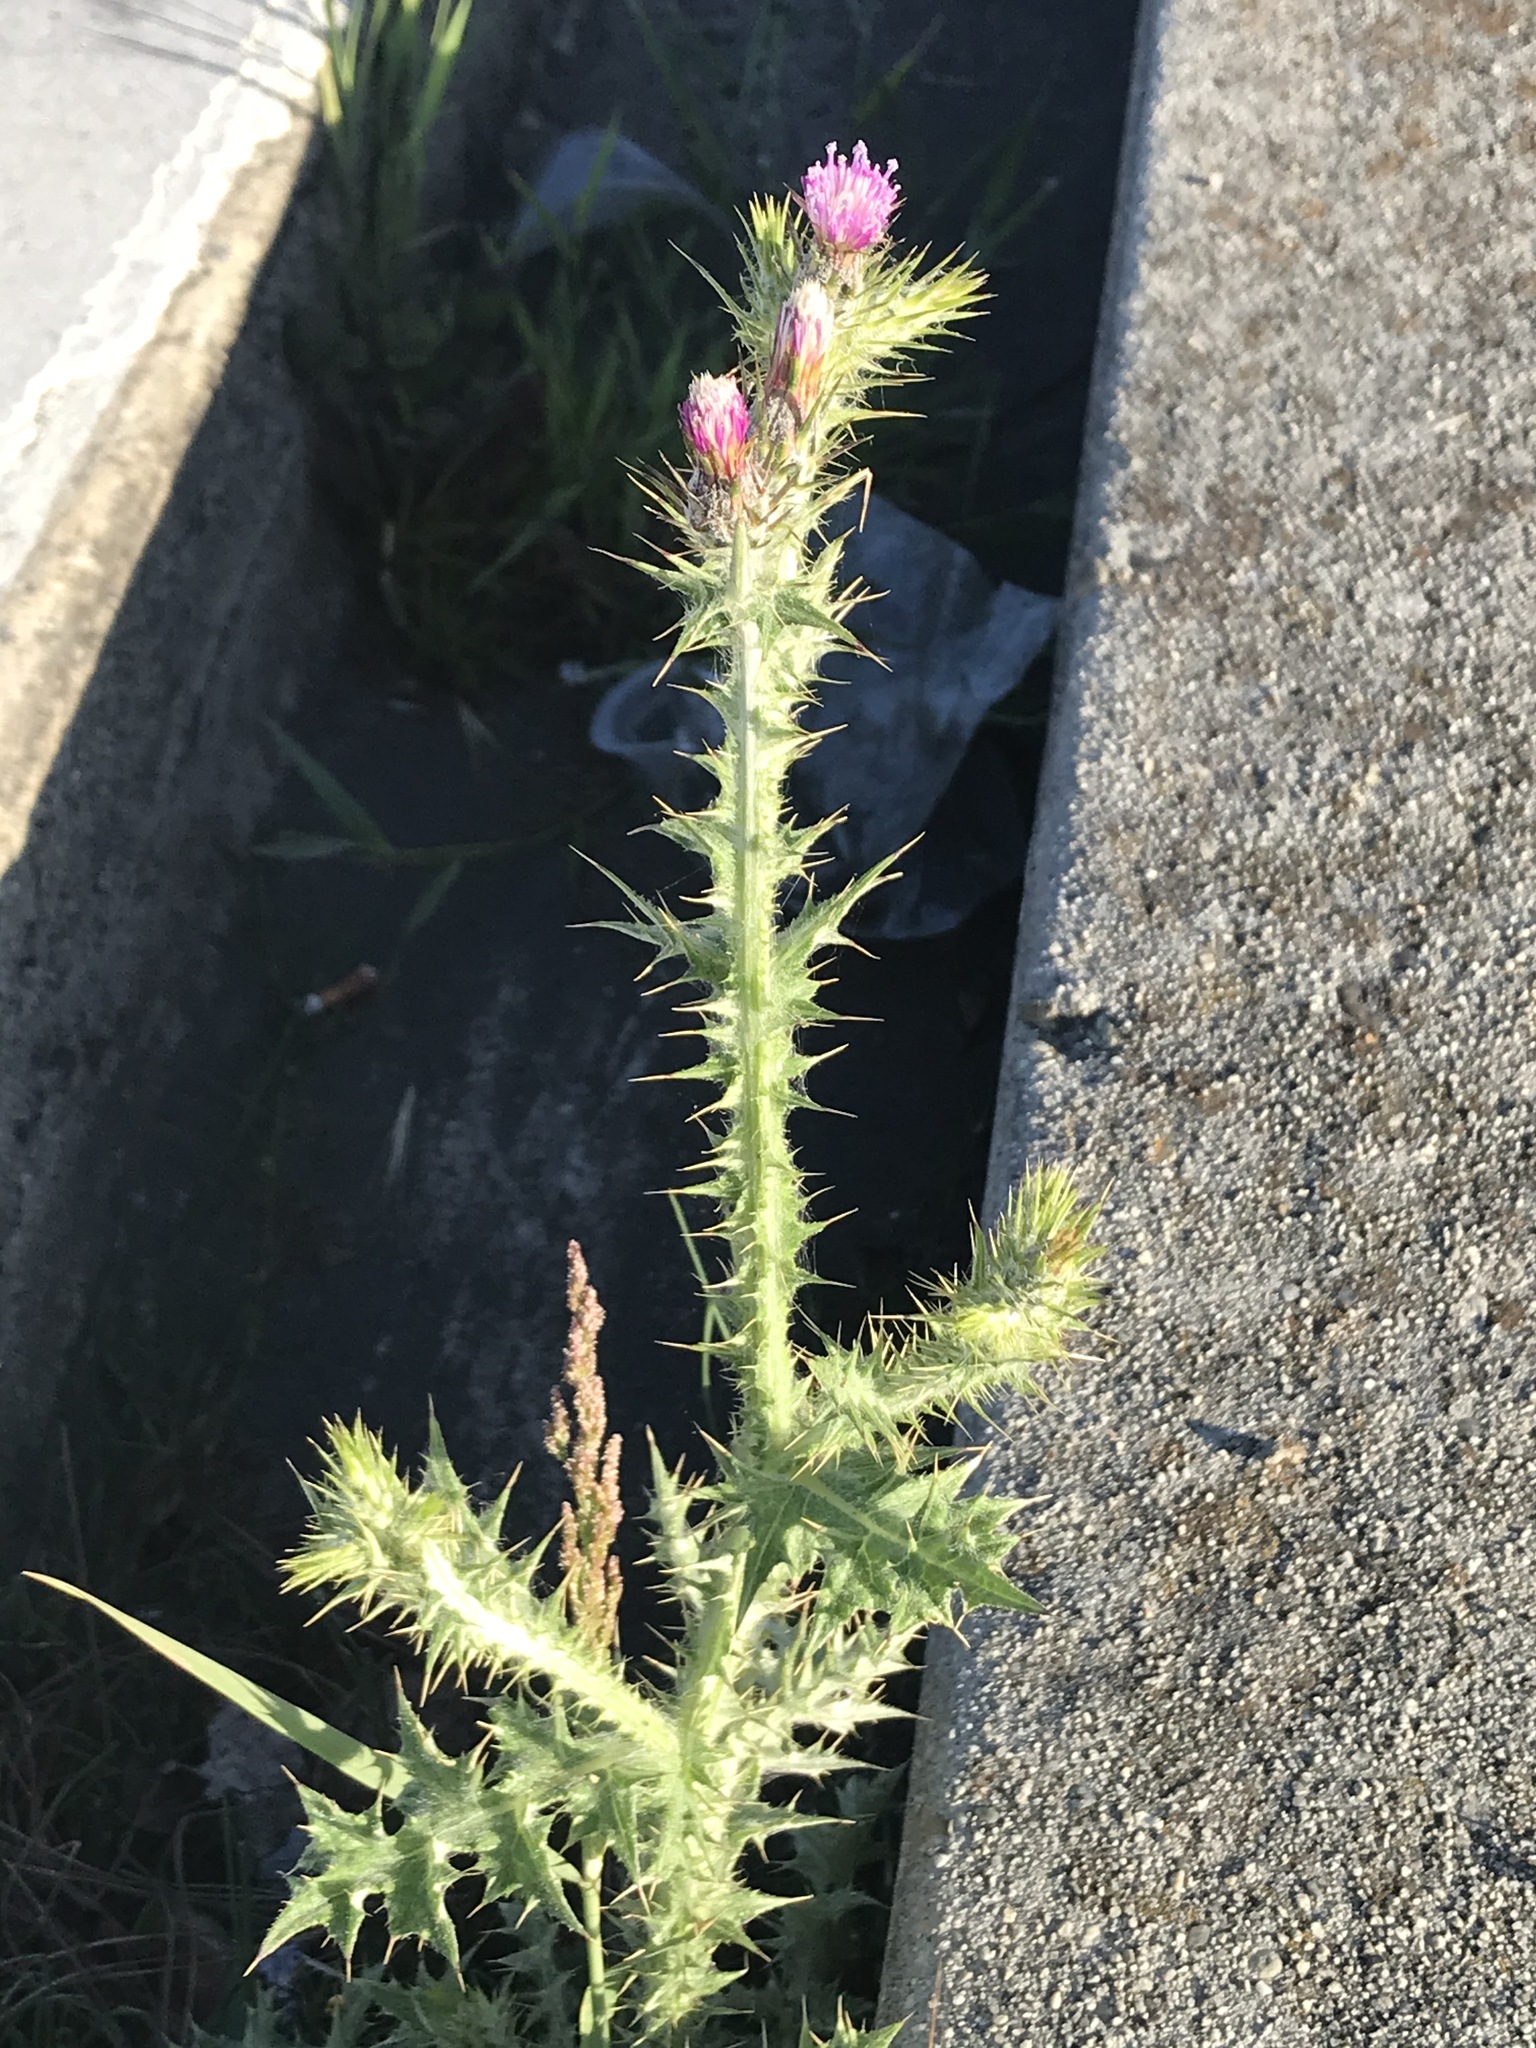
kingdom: Plantae
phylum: Tracheophyta
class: Magnoliopsida
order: Asterales
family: Asteraceae
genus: Carduus
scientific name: Carduus pycnocephalus
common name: Plymouth thistle
